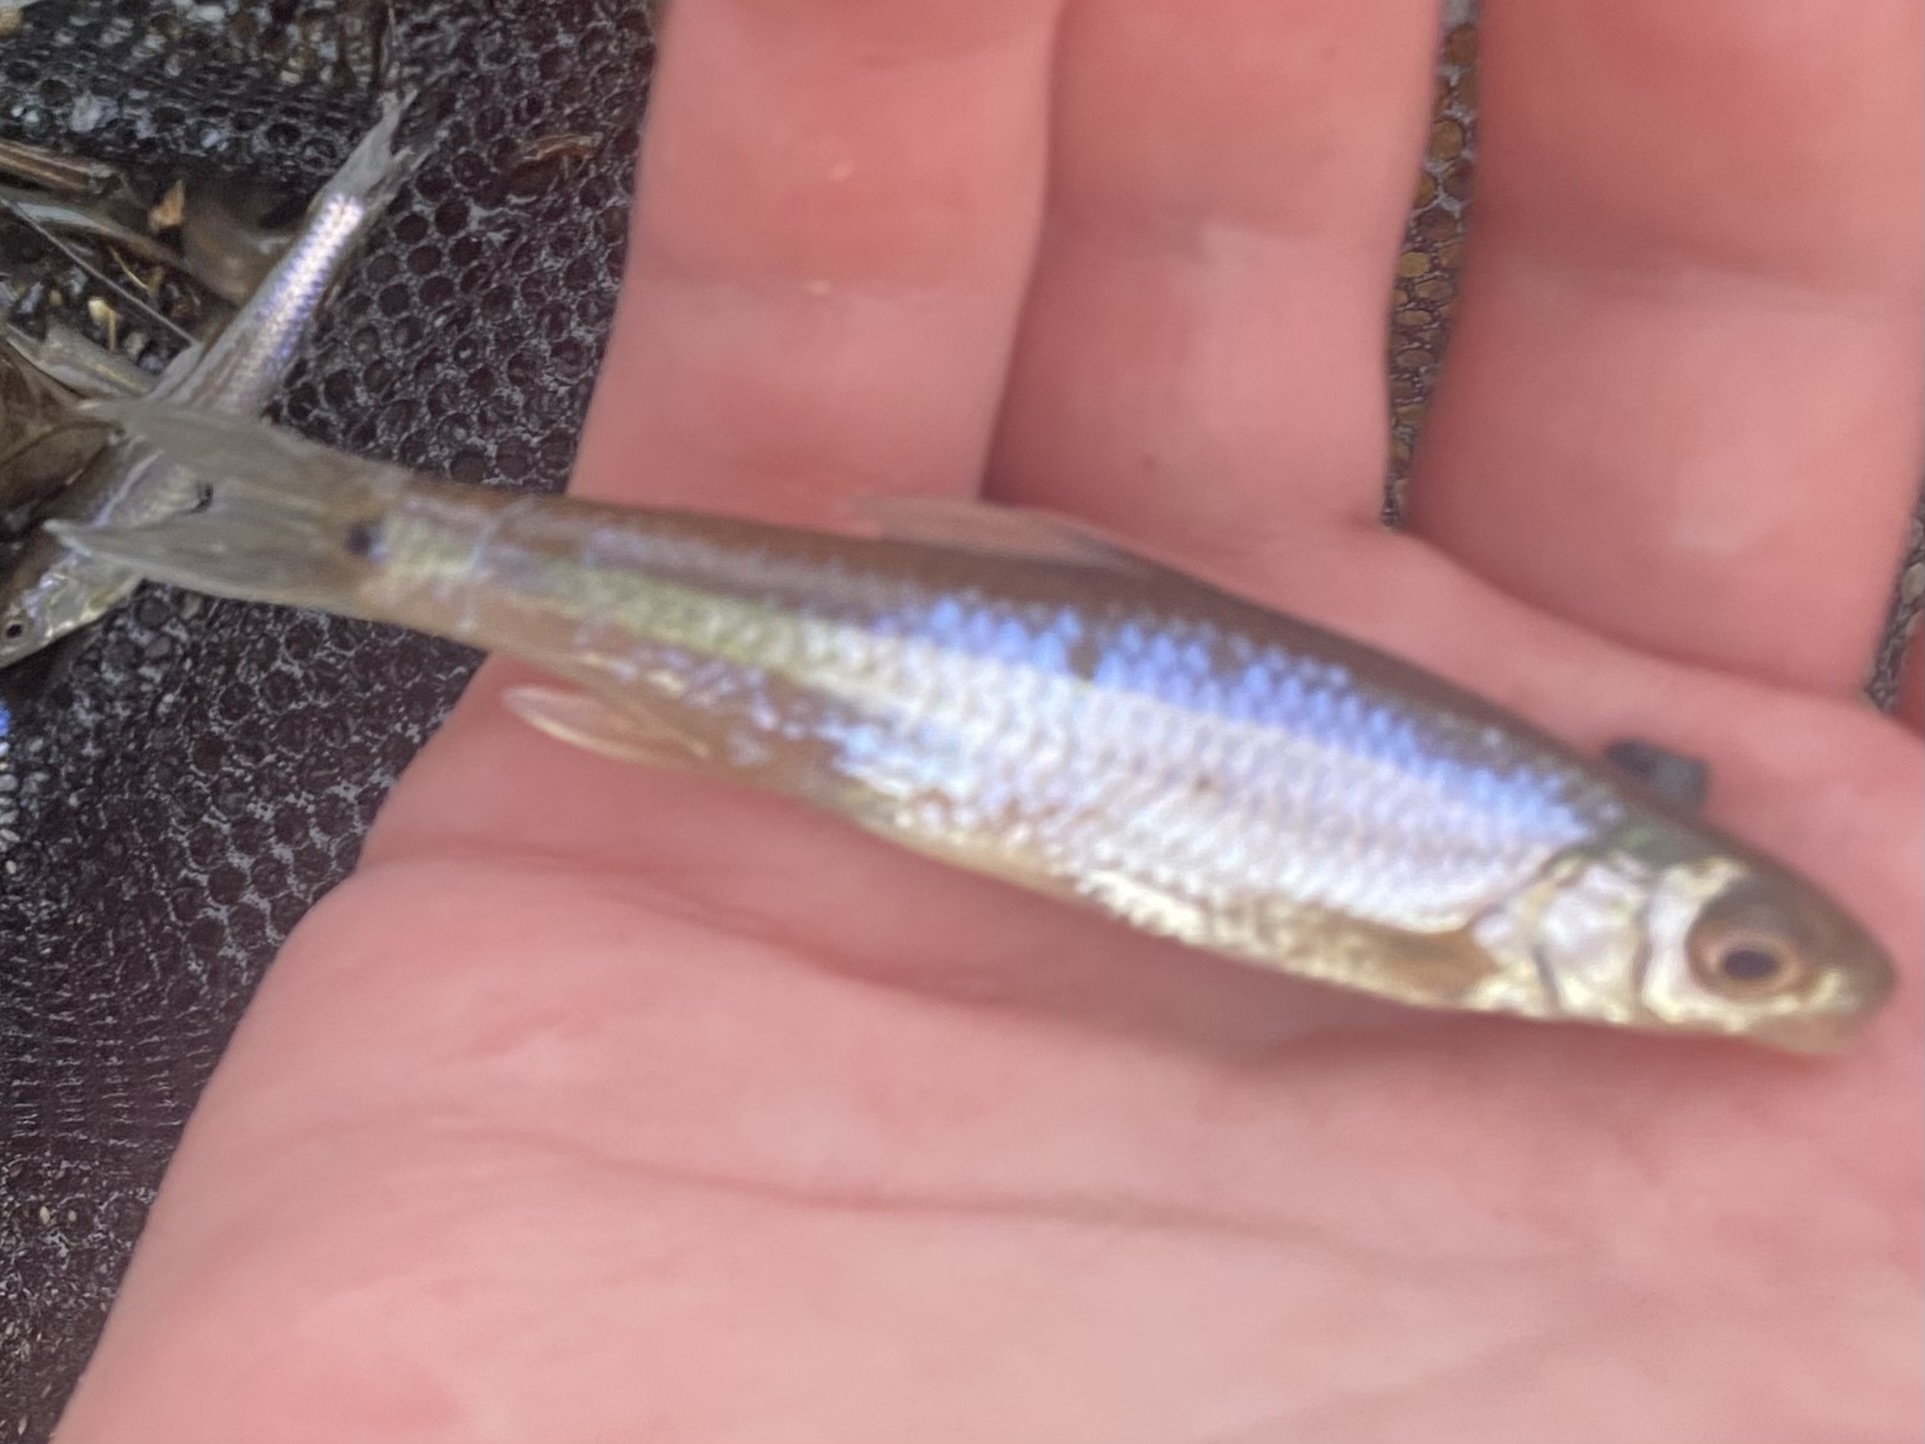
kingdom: Animalia
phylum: Chordata
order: Cypriniformes
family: Cyprinidae
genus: Notropis
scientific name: Notropis
